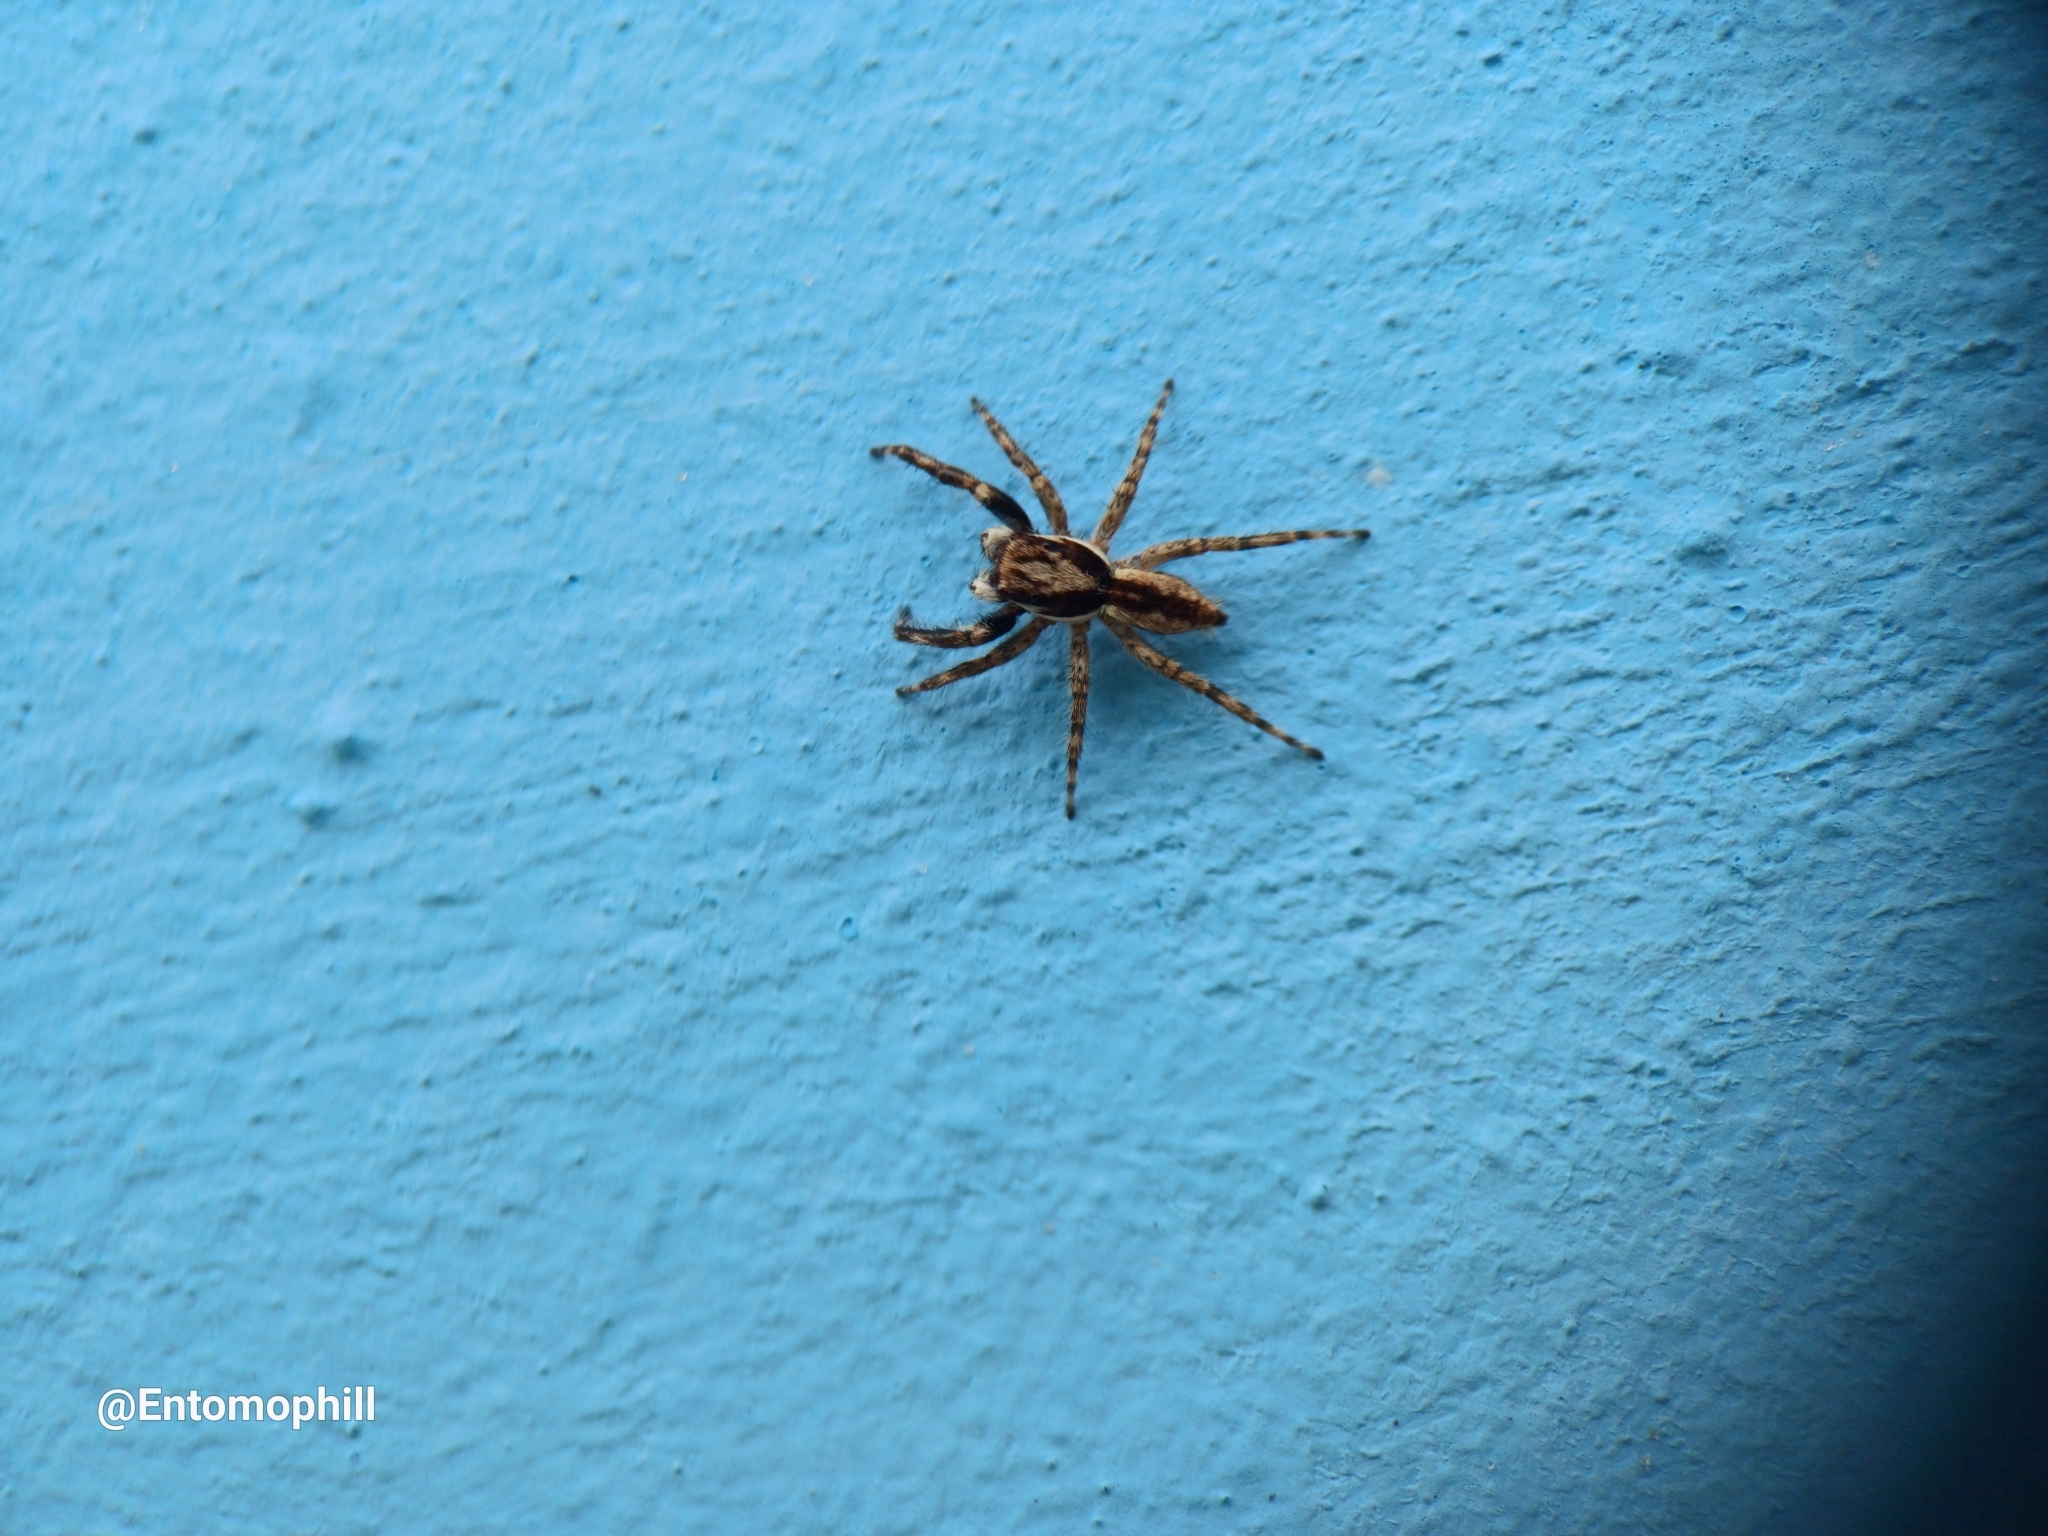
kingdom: Animalia
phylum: Arthropoda
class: Arachnida
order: Araneae
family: Salticidae
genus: Menemerus
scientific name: Menemerus bivittatus
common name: Gray wall jumper
